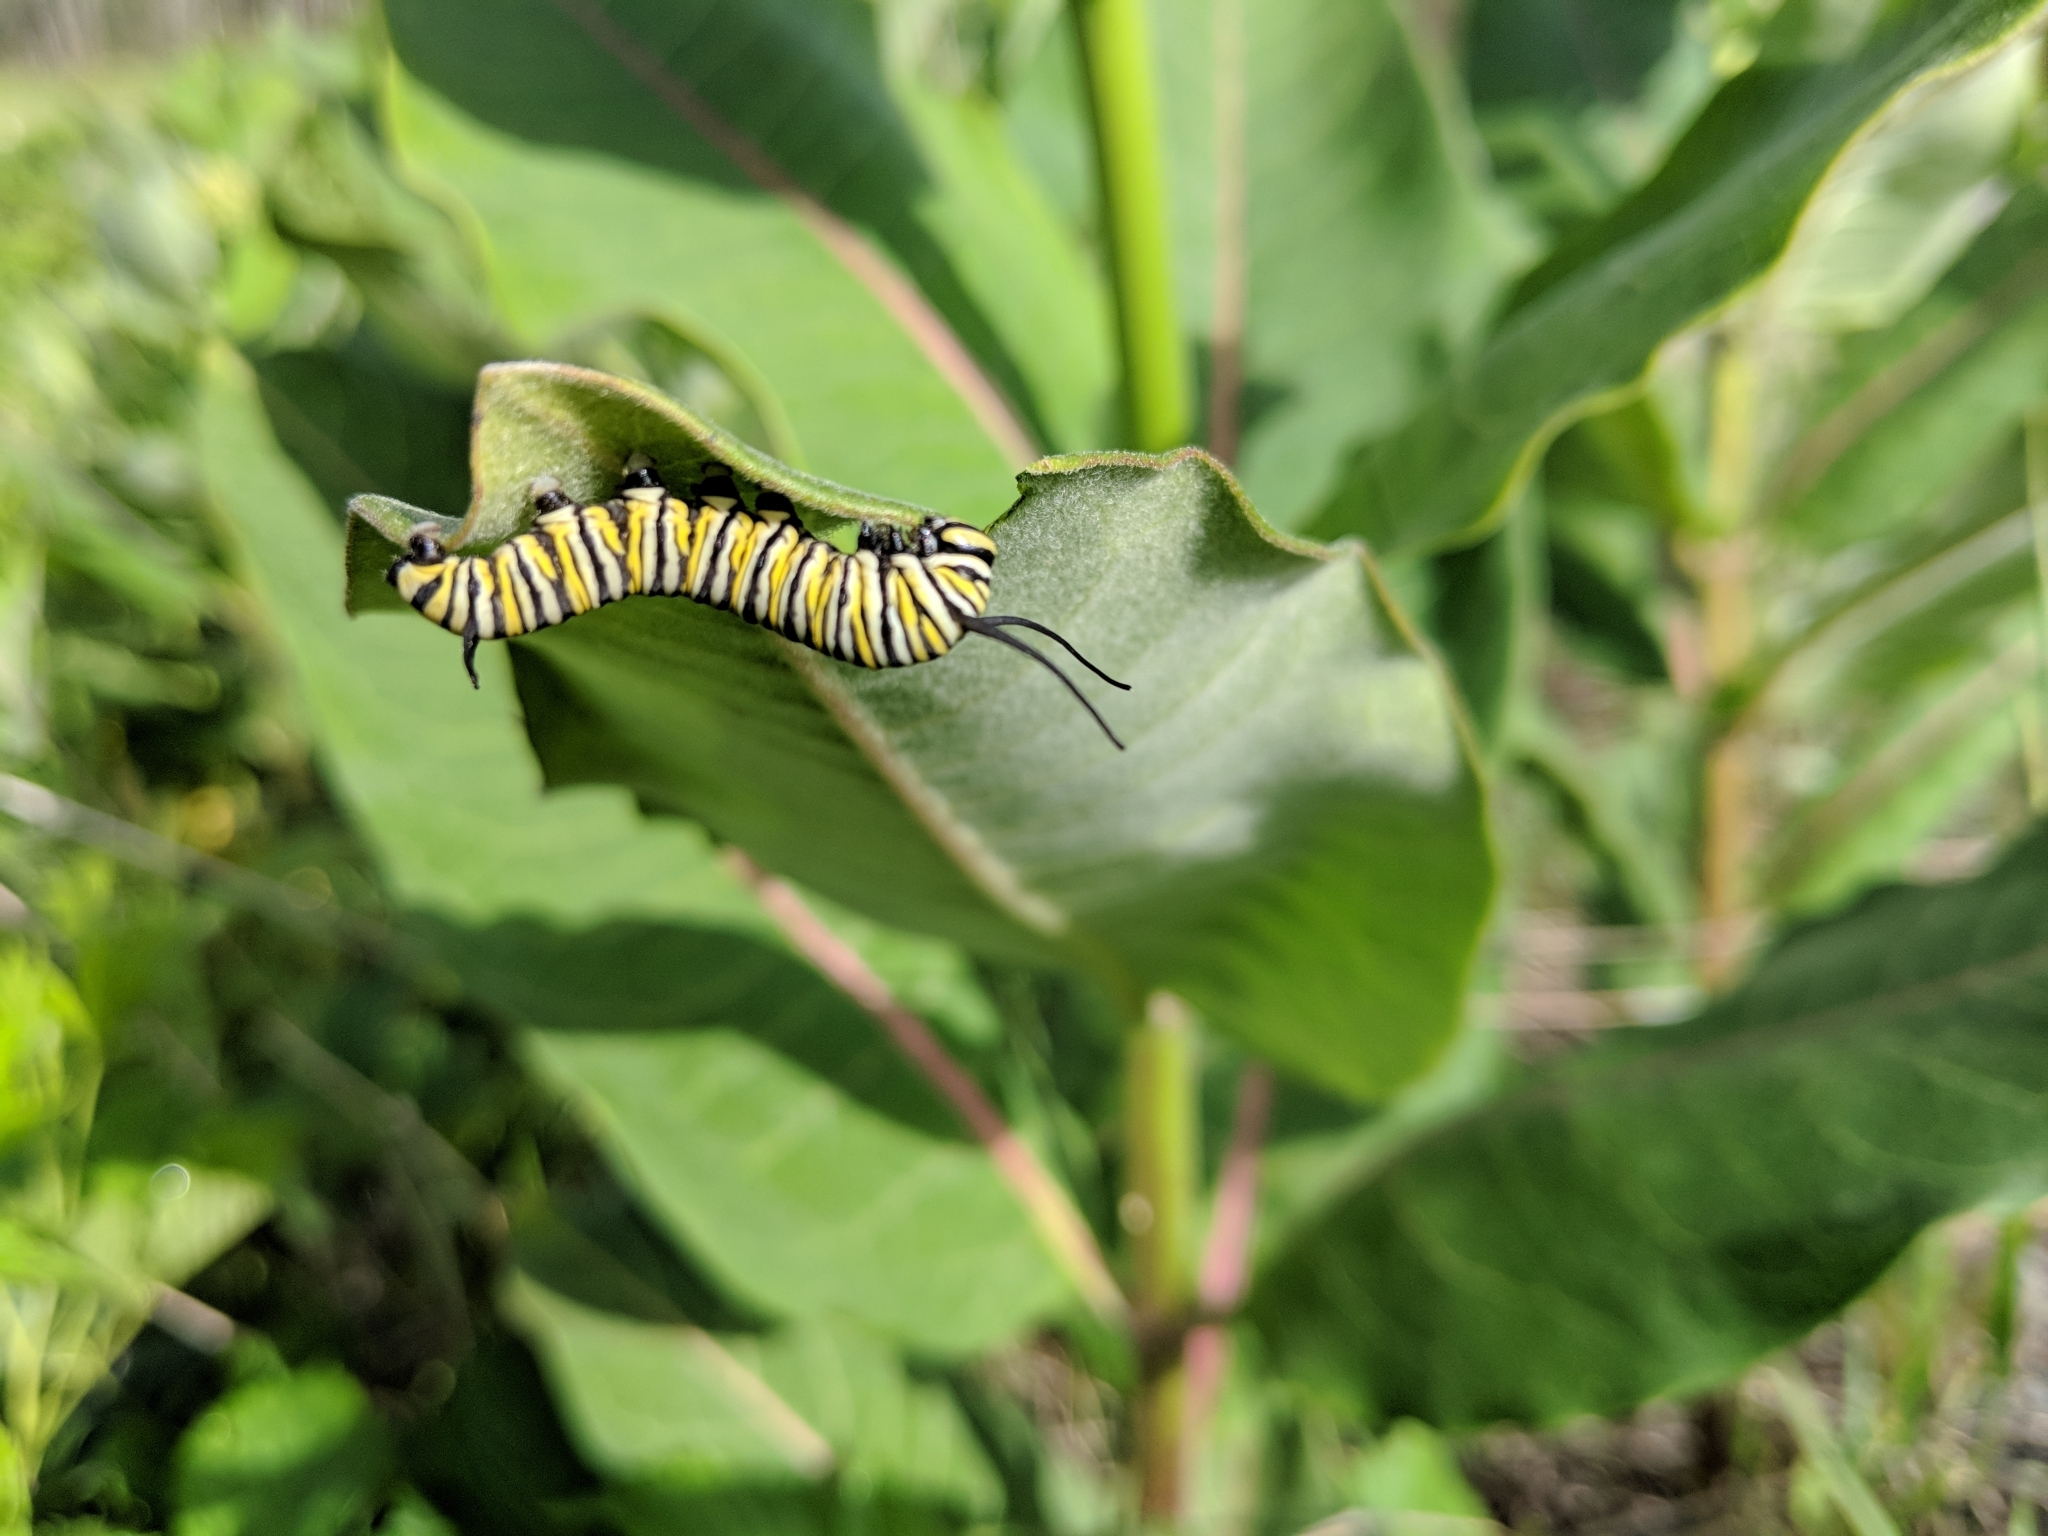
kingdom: Animalia
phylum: Arthropoda
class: Insecta
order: Lepidoptera
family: Nymphalidae
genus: Danaus
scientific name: Danaus plexippus
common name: Monarch
